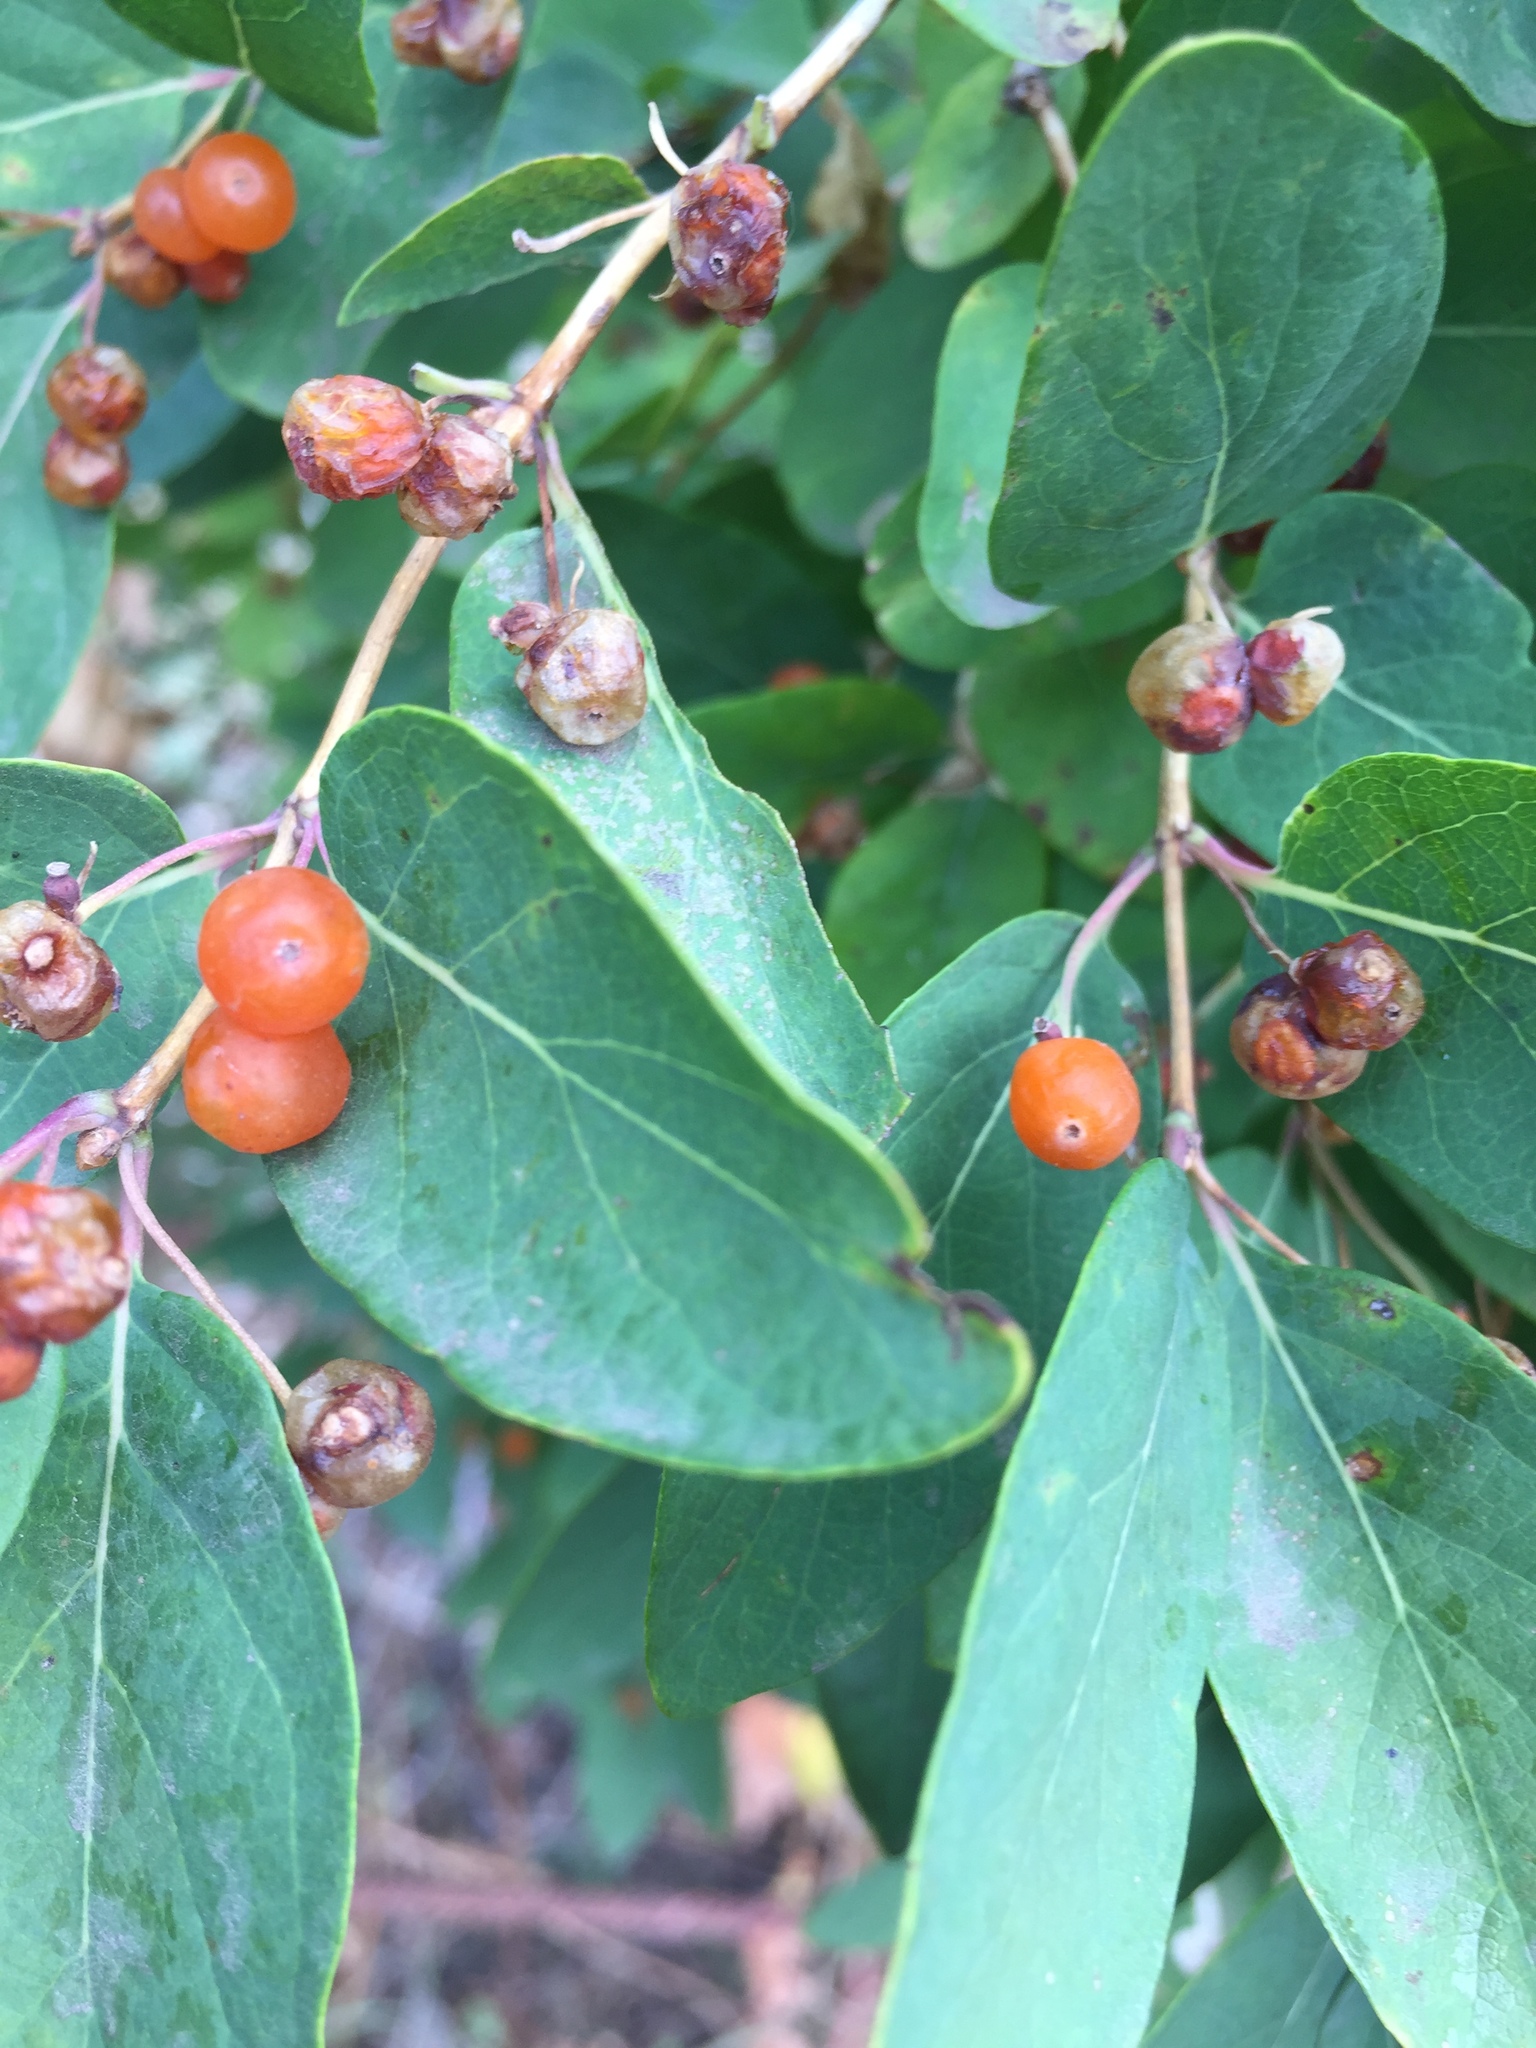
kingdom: Plantae
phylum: Tracheophyta
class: Magnoliopsida
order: Dipsacales
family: Caprifoliaceae
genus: Lonicera
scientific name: Lonicera tatarica
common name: Tatarian honeysuckle
